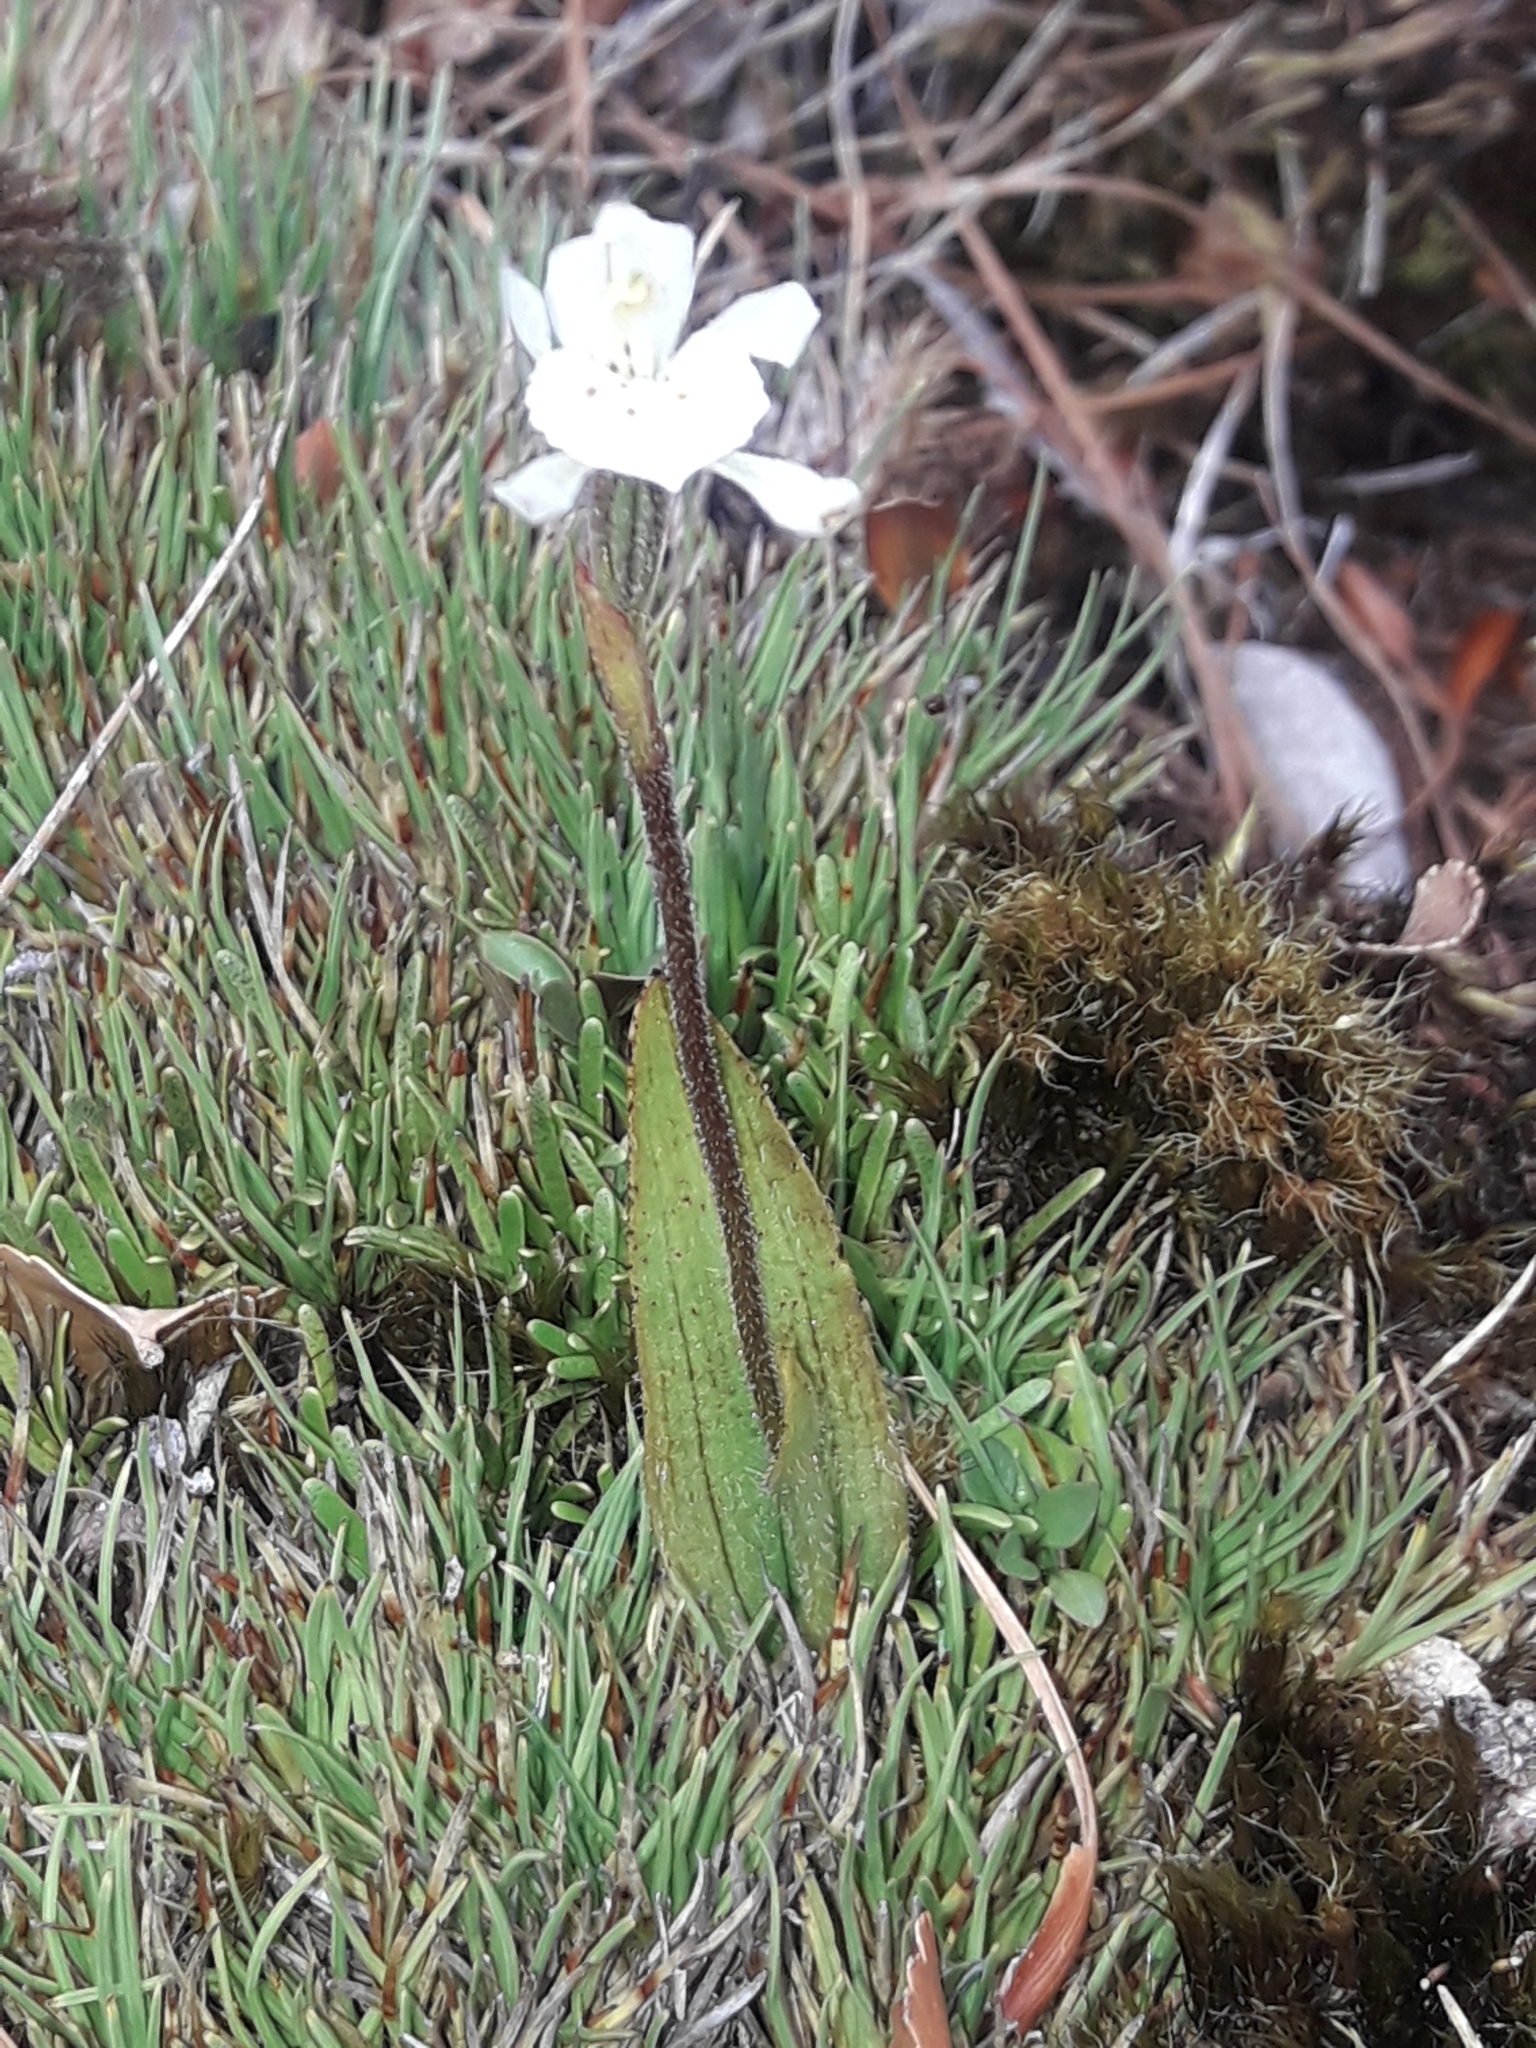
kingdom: Plantae
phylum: Tracheophyta
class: Liliopsida
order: Asparagales
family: Orchidaceae
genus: Aporostylis
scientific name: Aporostylis bifolia
